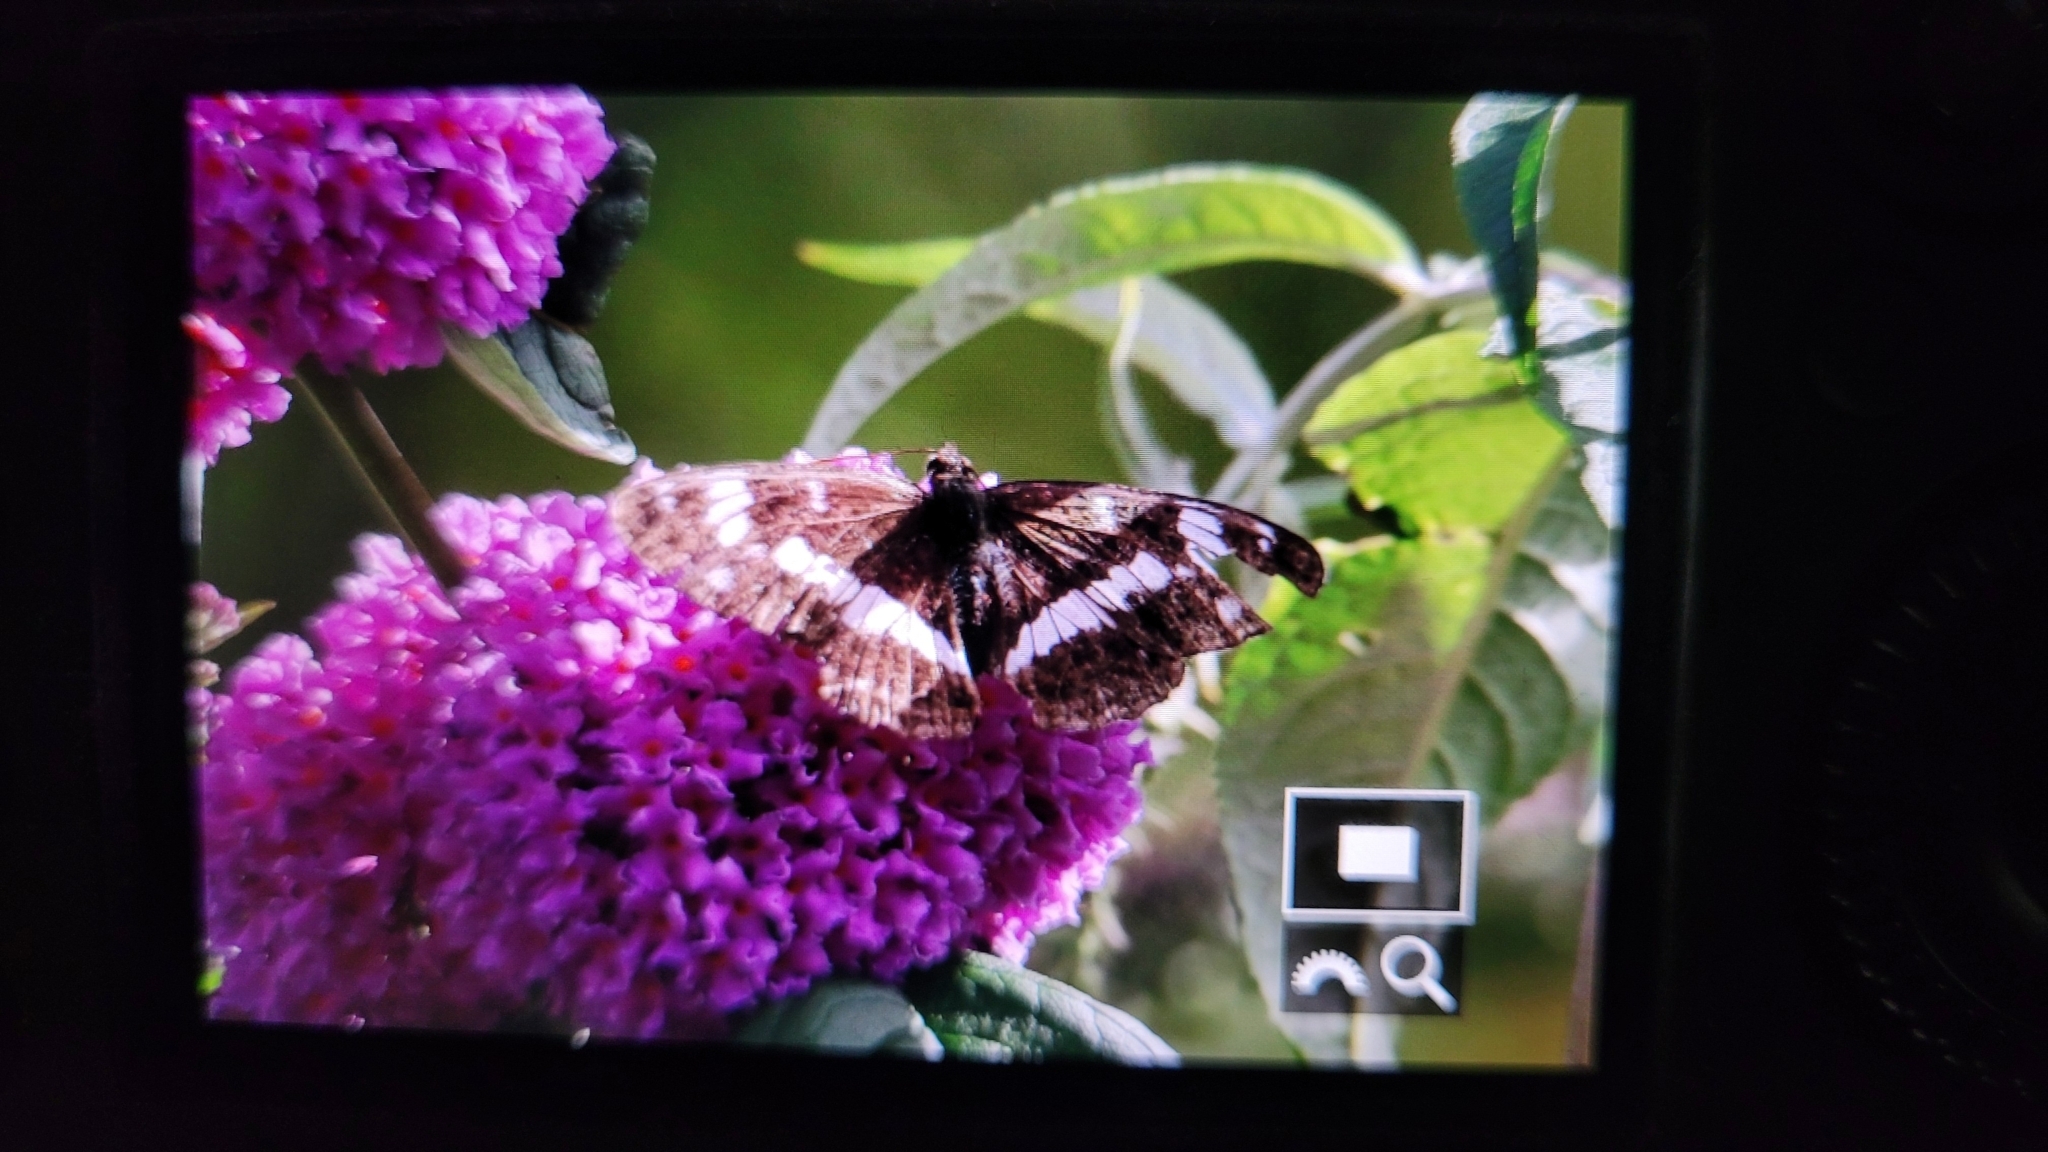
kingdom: Animalia
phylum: Arthropoda
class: Insecta
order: Lepidoptera
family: Nymphalidae
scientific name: Nymphalidae
